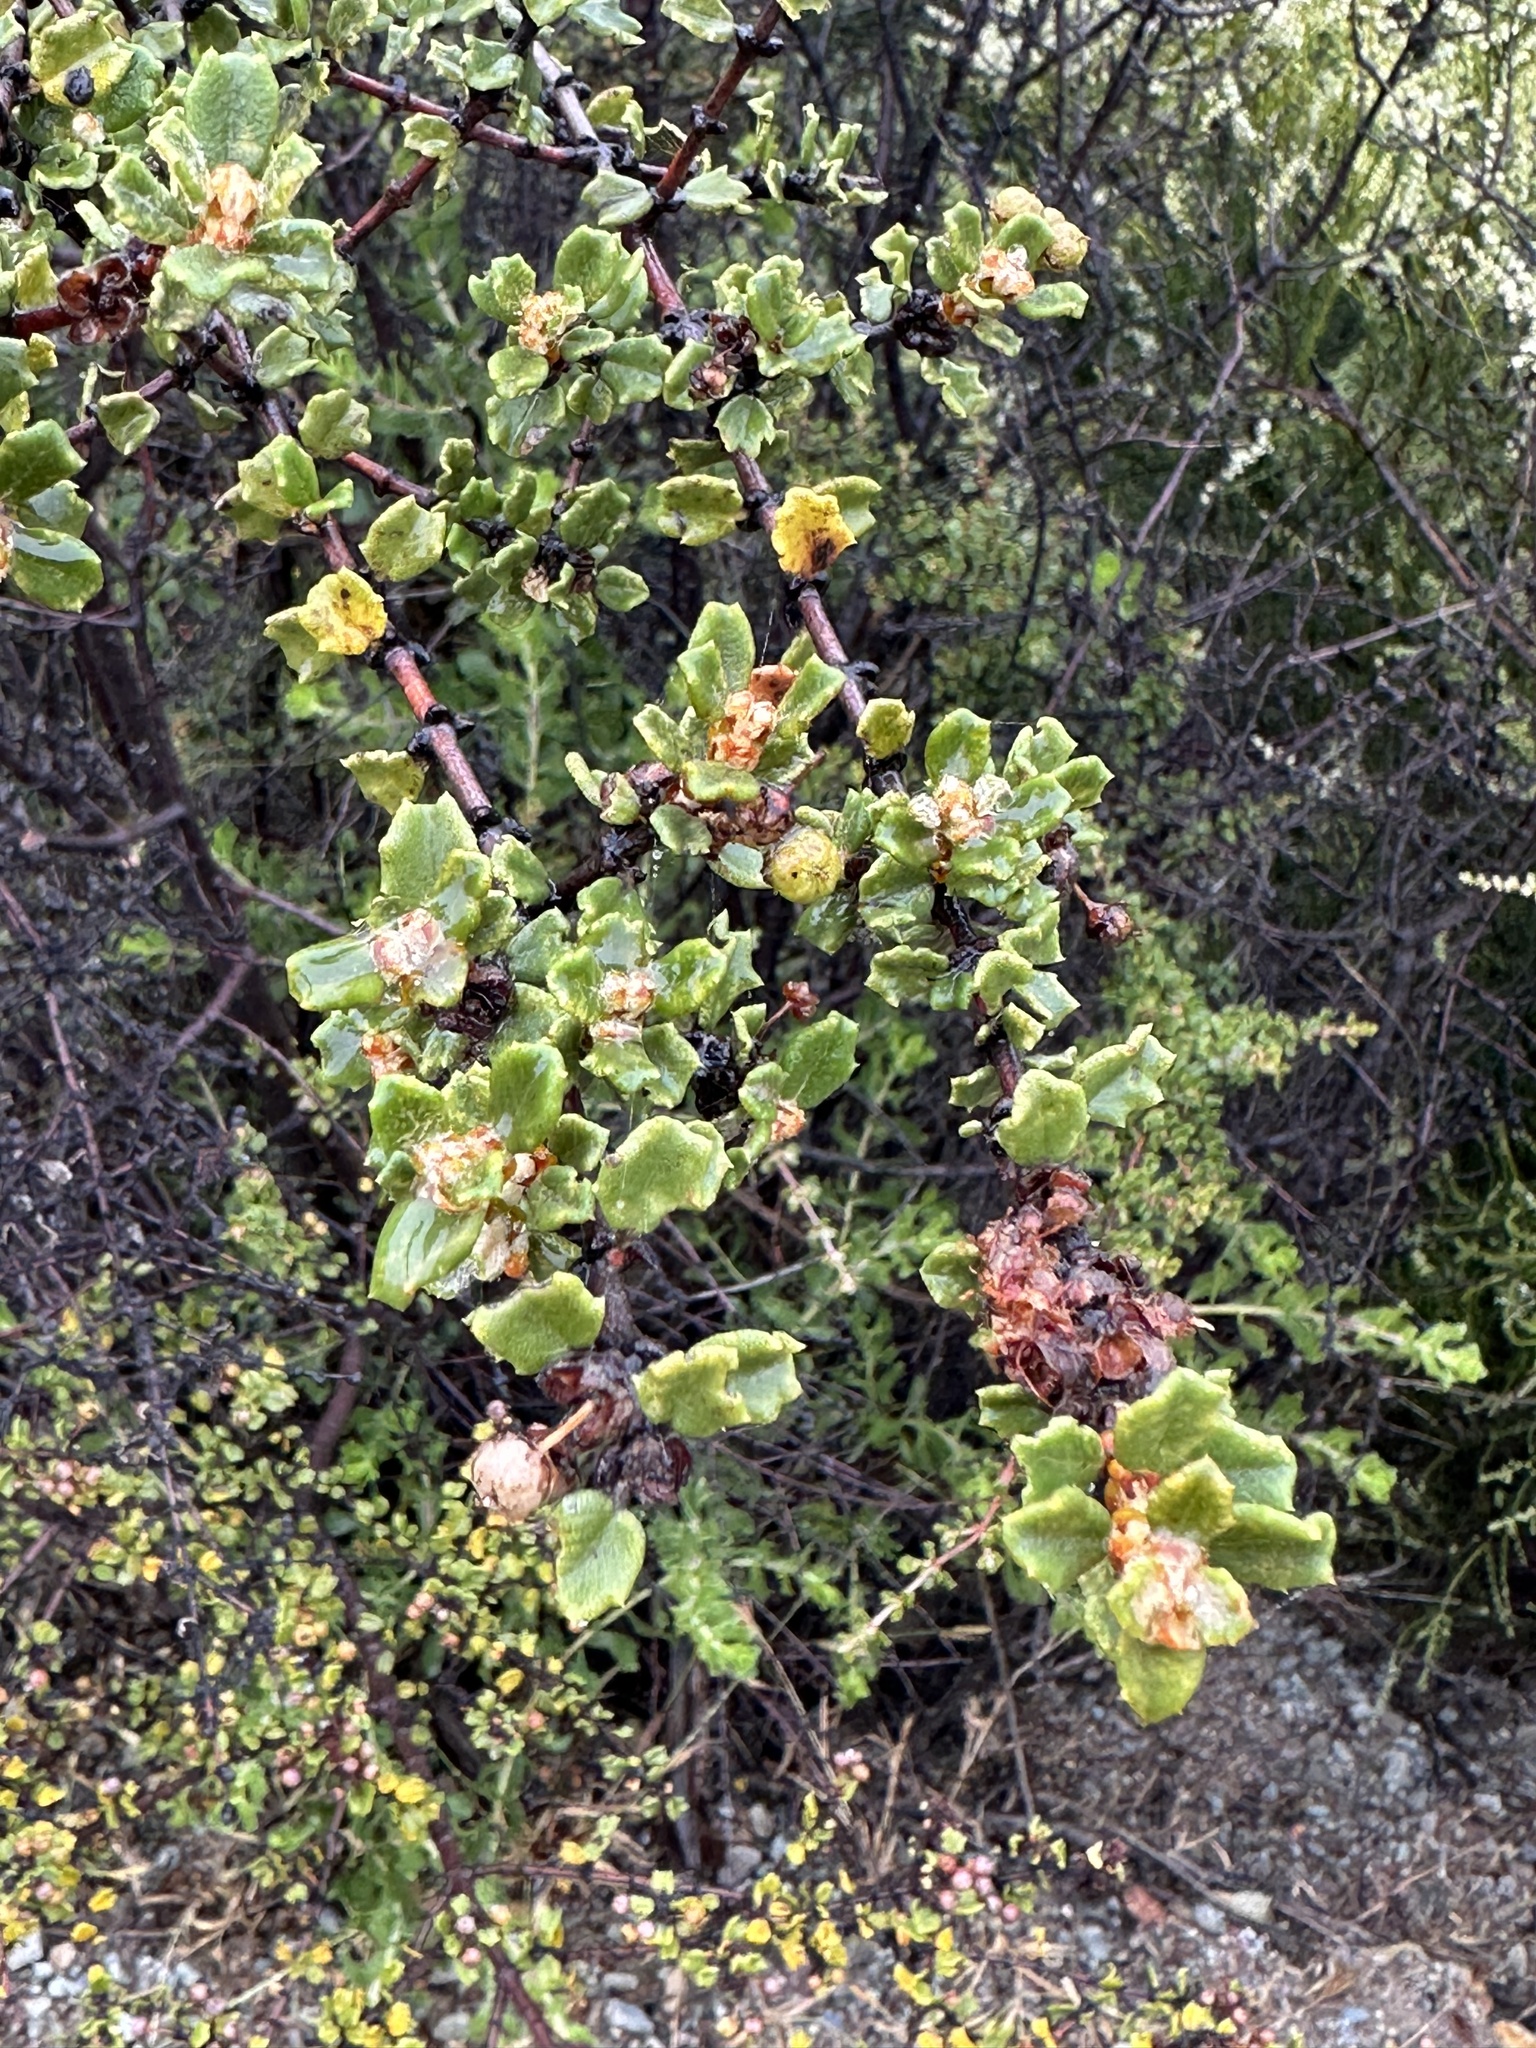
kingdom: Plantae
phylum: Tracheophyta
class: Magnoliopsida
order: Rosales
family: Rhamnaceae
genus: Ceanothus
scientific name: Ceanothus otayensis
